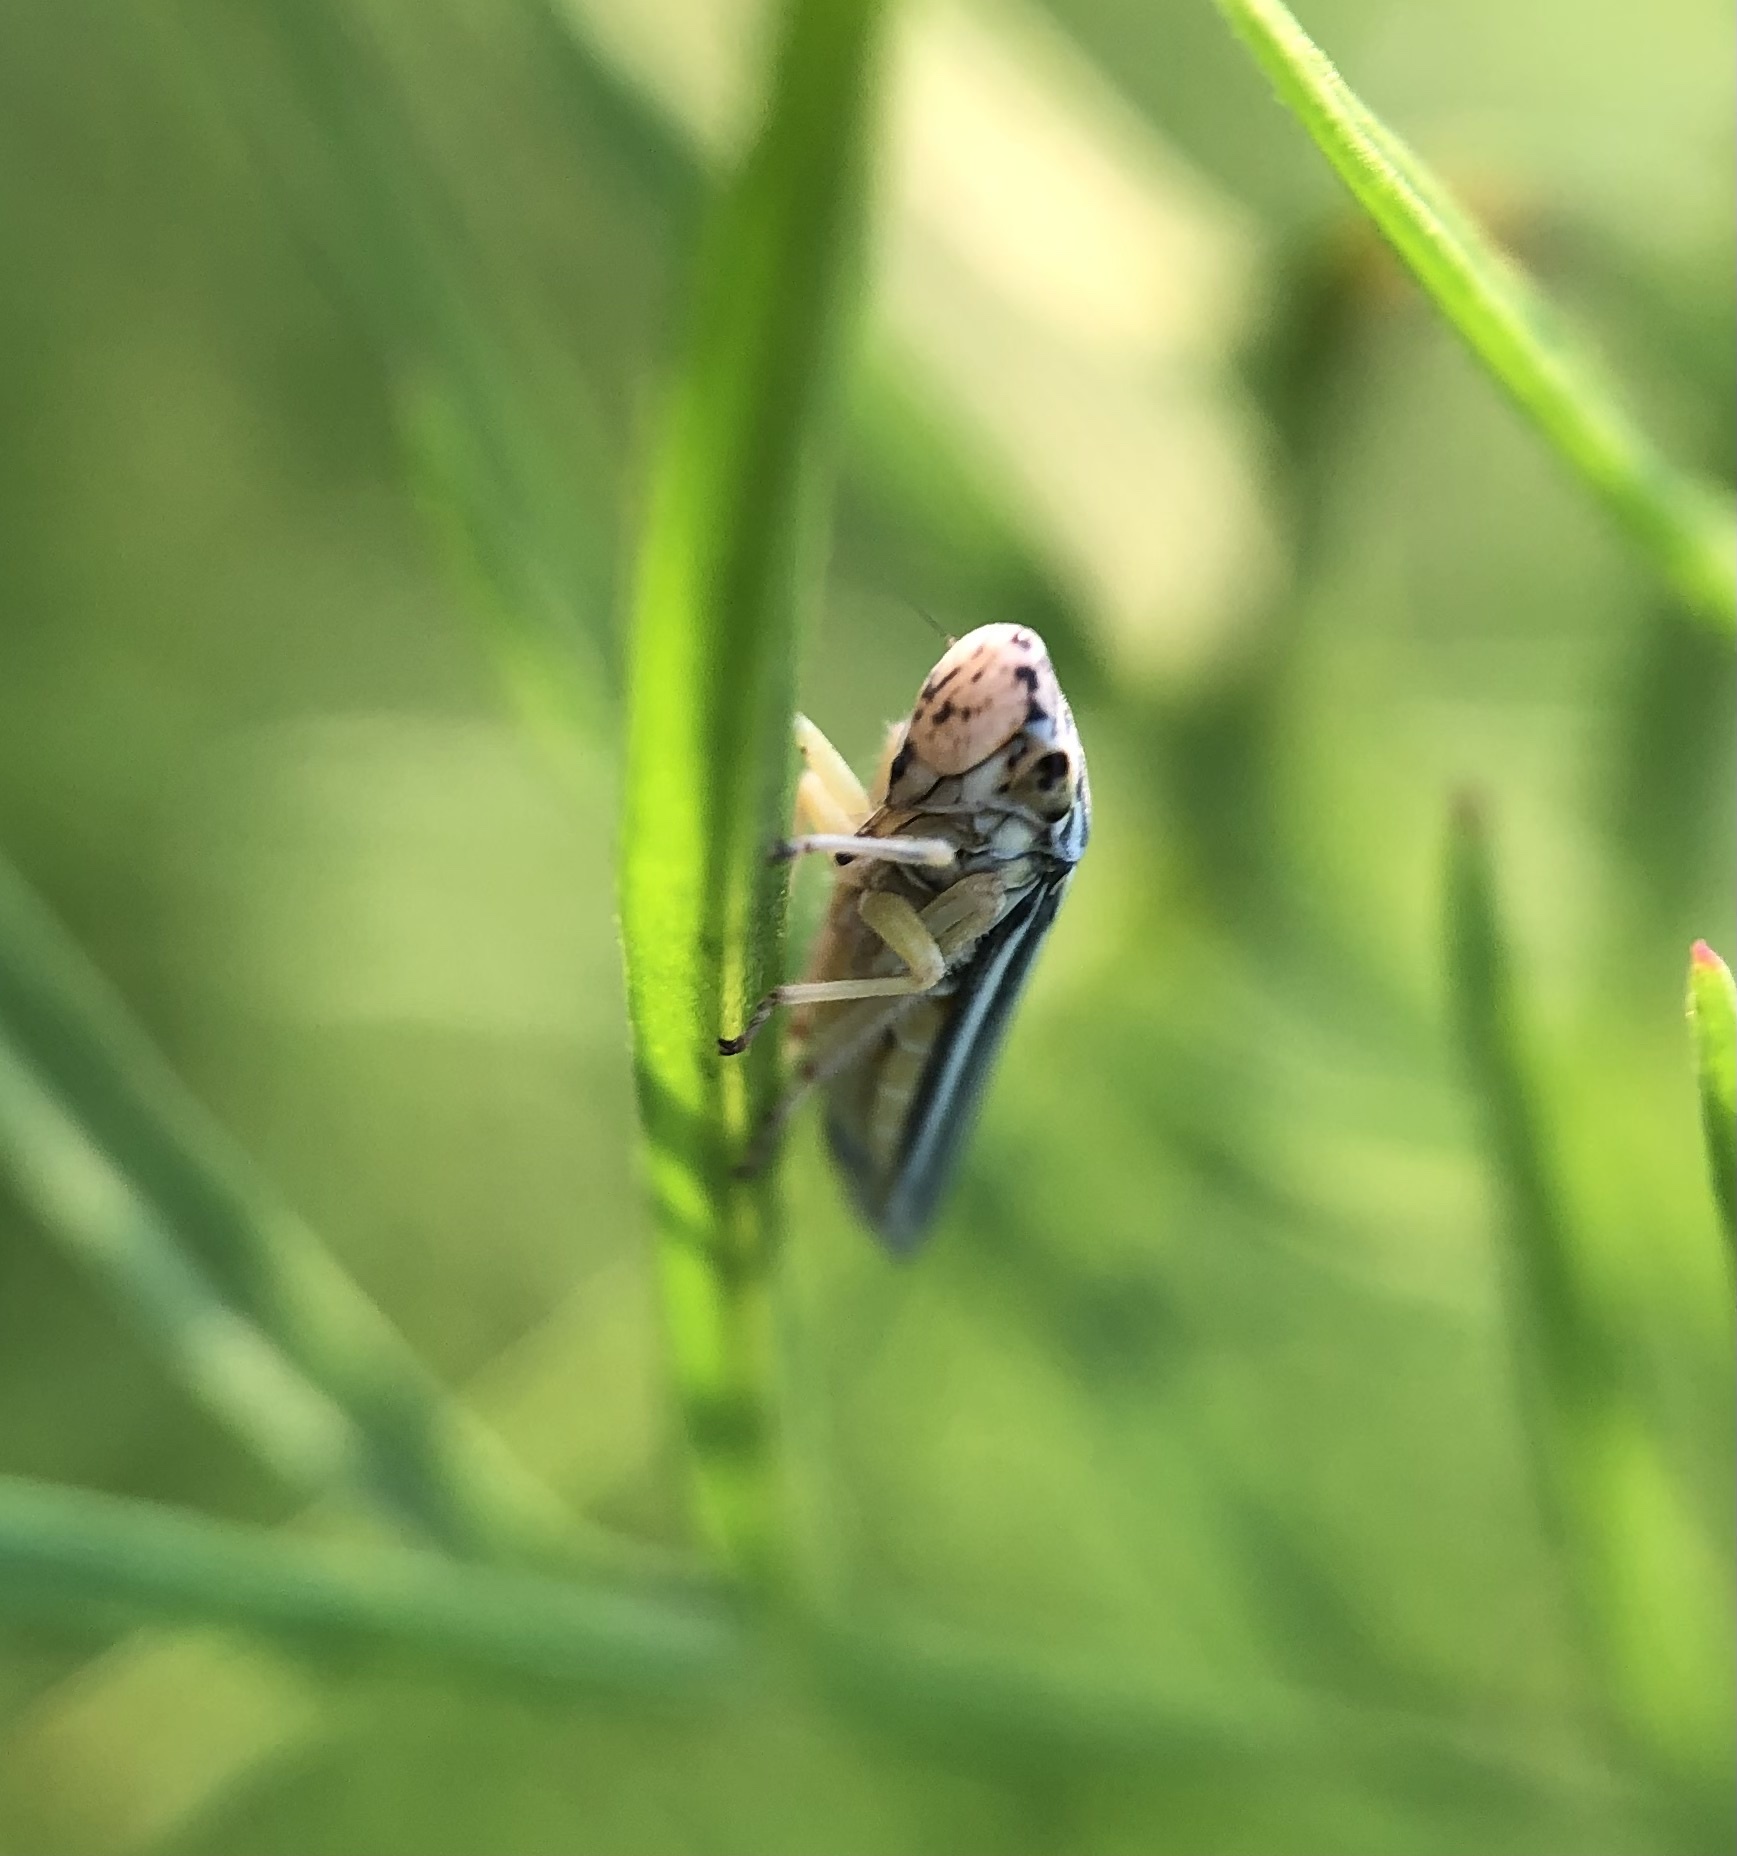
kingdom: Animalia
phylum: Arthropoda
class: Insecta
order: Hemiptera
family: Cicadellidae
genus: Neokolla
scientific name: Neokolla hieroglyphica
